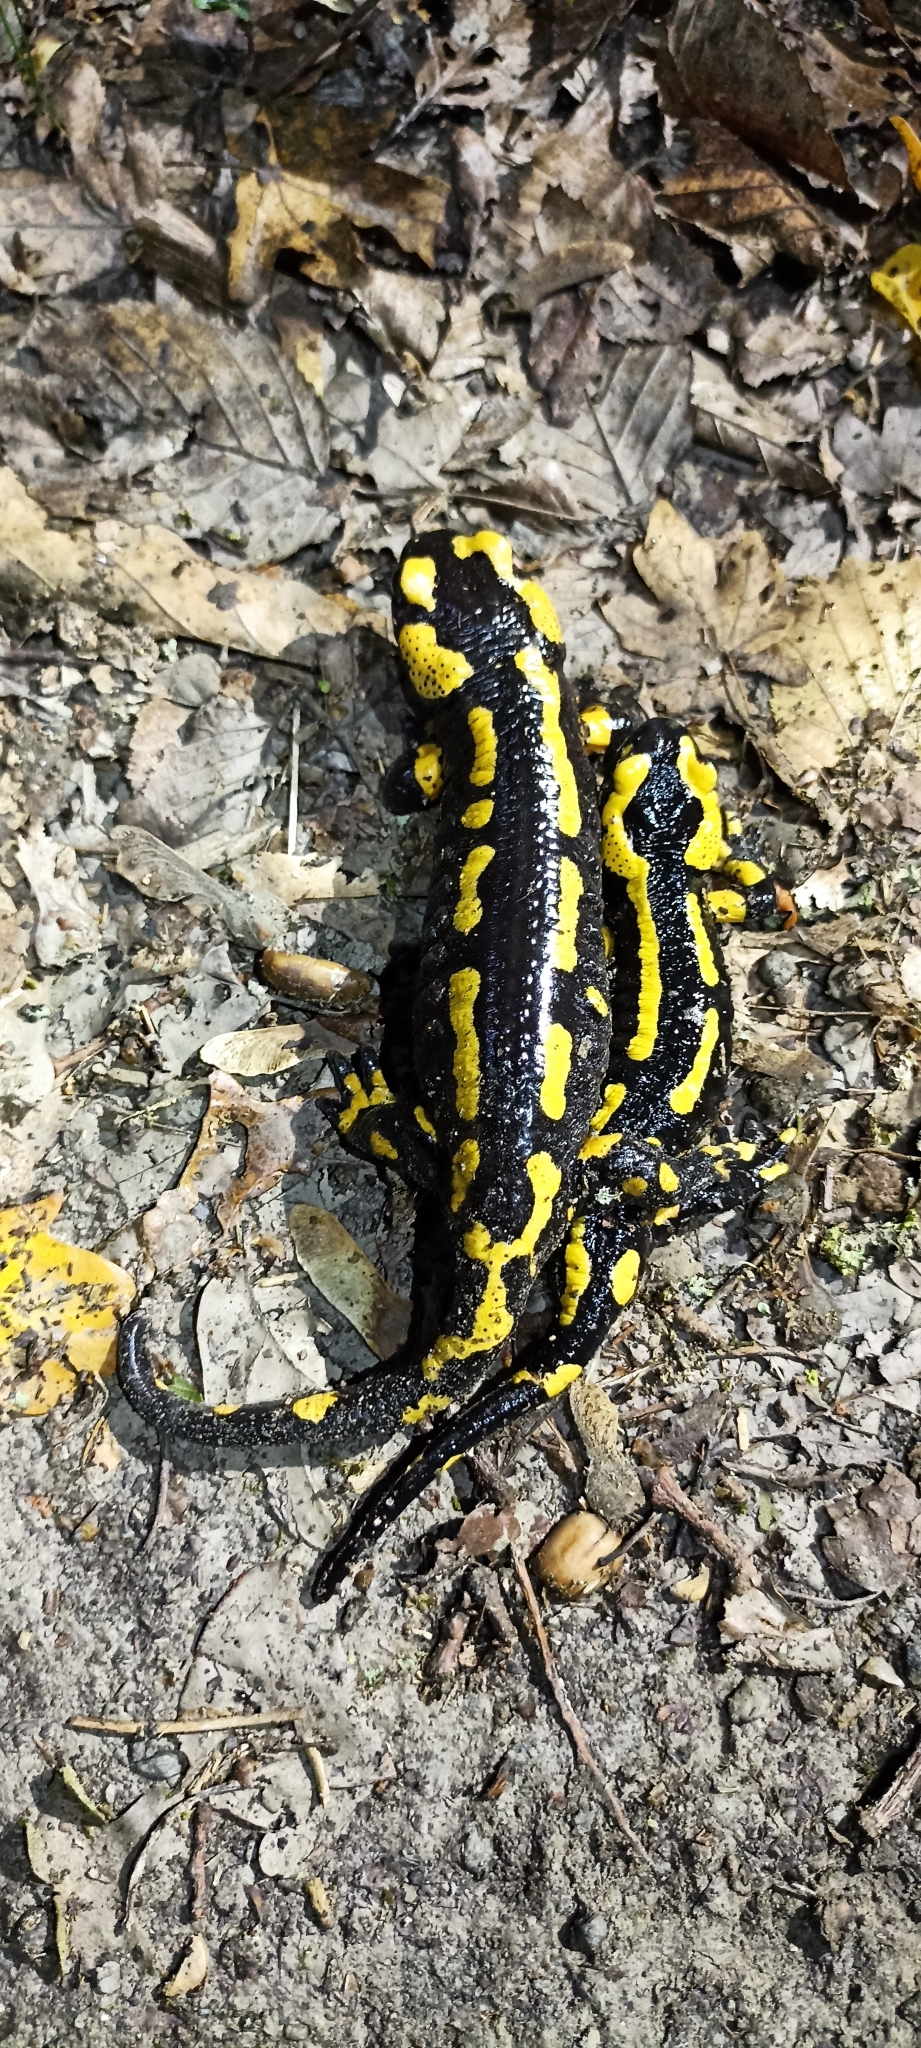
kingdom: Animalia
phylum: Chordata
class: Amphibia
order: Caudata
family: Salamandridae
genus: Salamandra
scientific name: Salamandra salamandra
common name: Fire salamander
